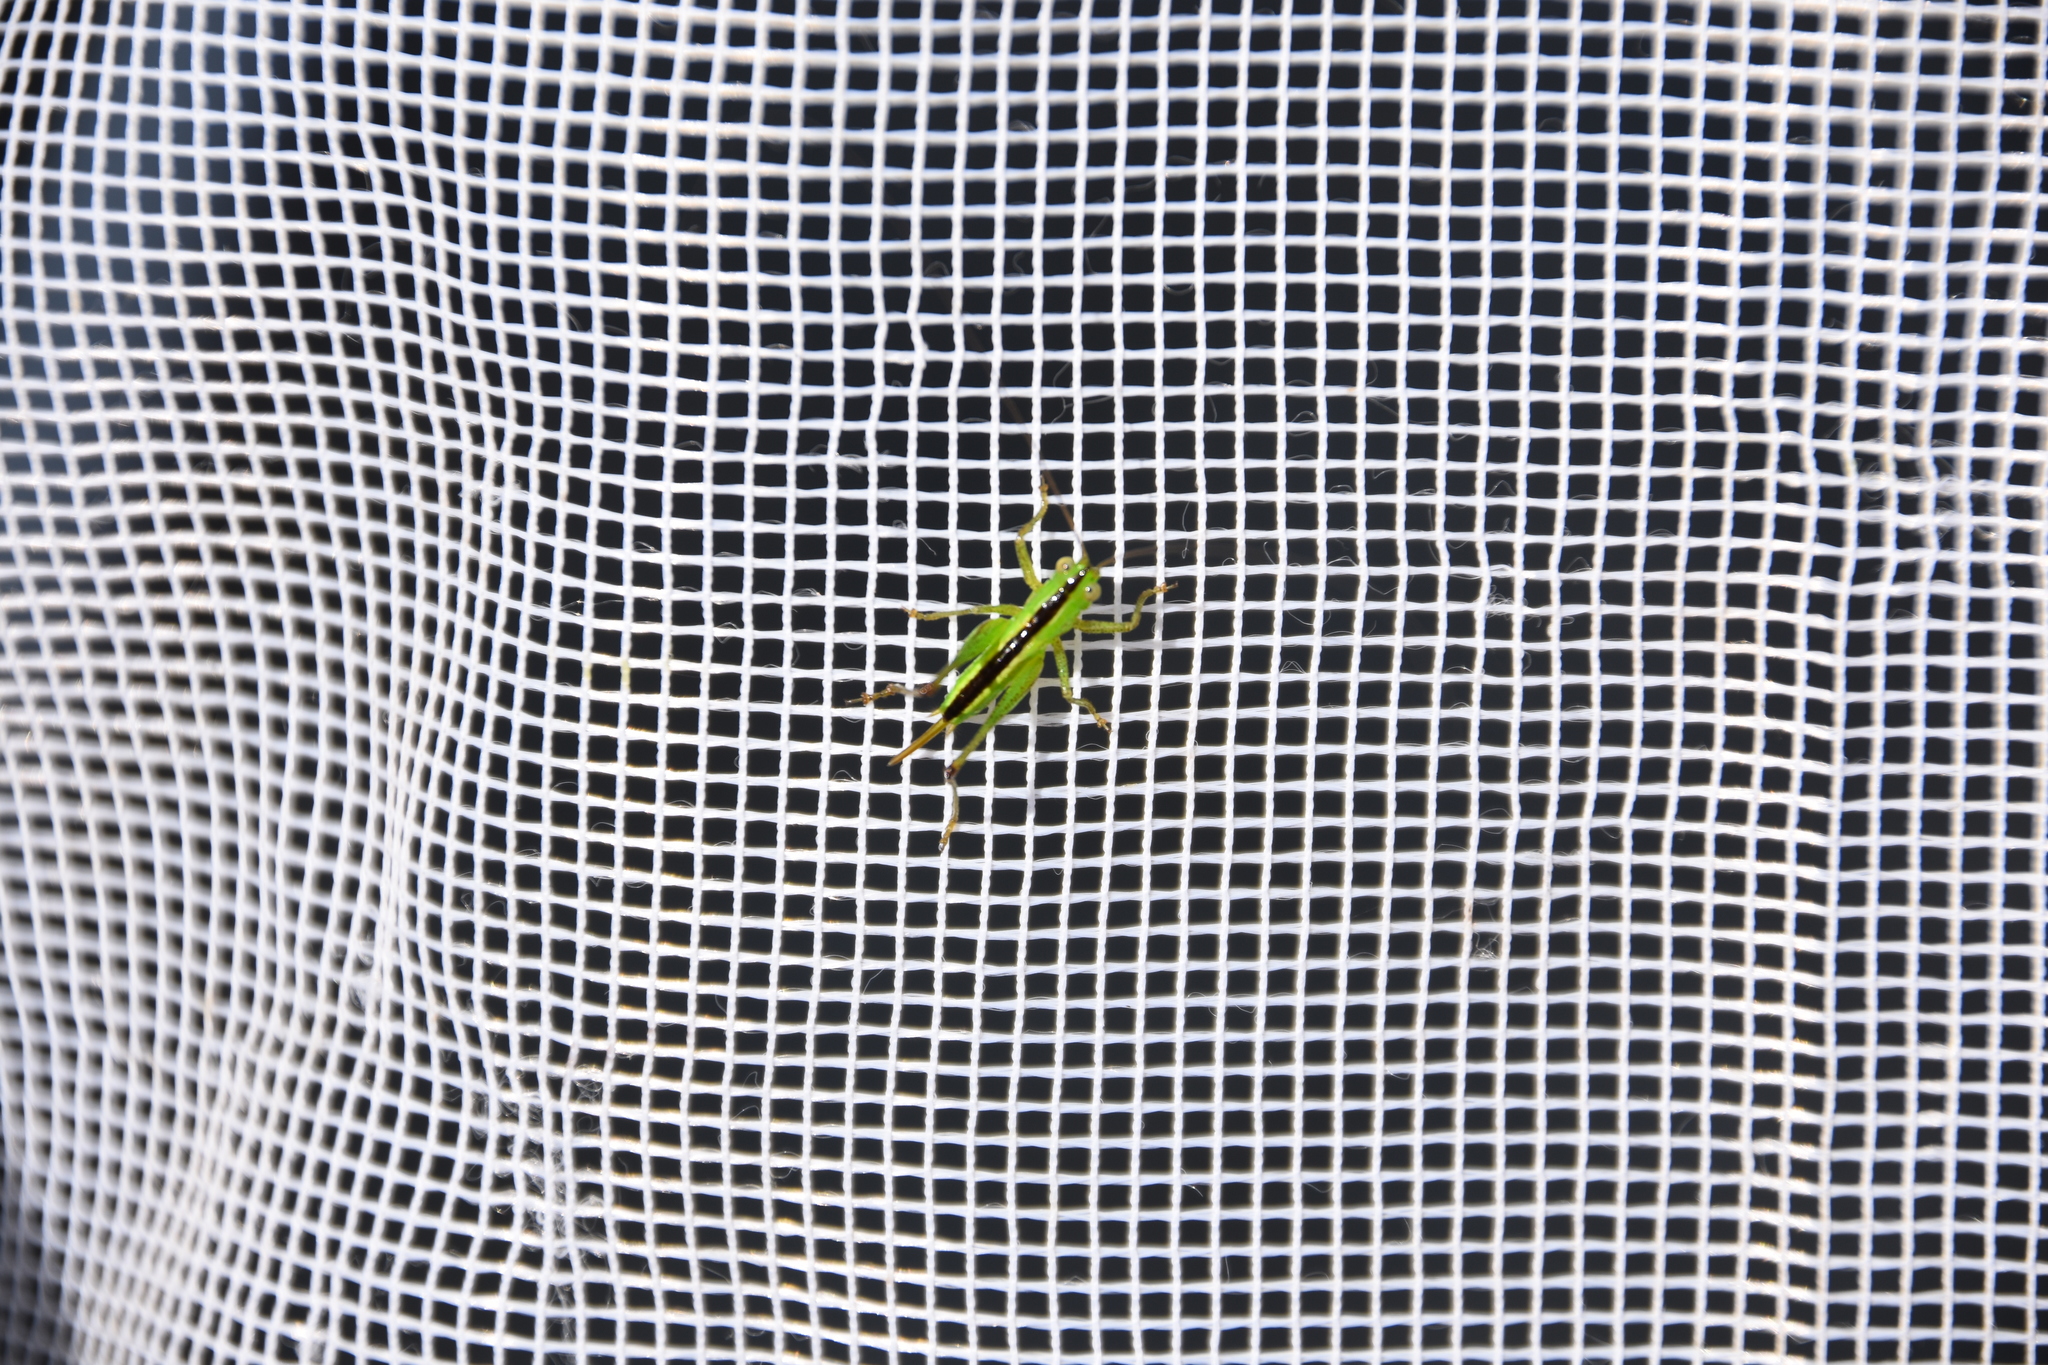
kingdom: Animalia
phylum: Arthropoda
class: Insecta
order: Orthoptera
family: Acrididae
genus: Chortophaga
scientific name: Chortophaga viridifasciata
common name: Green-striped grasshopper
